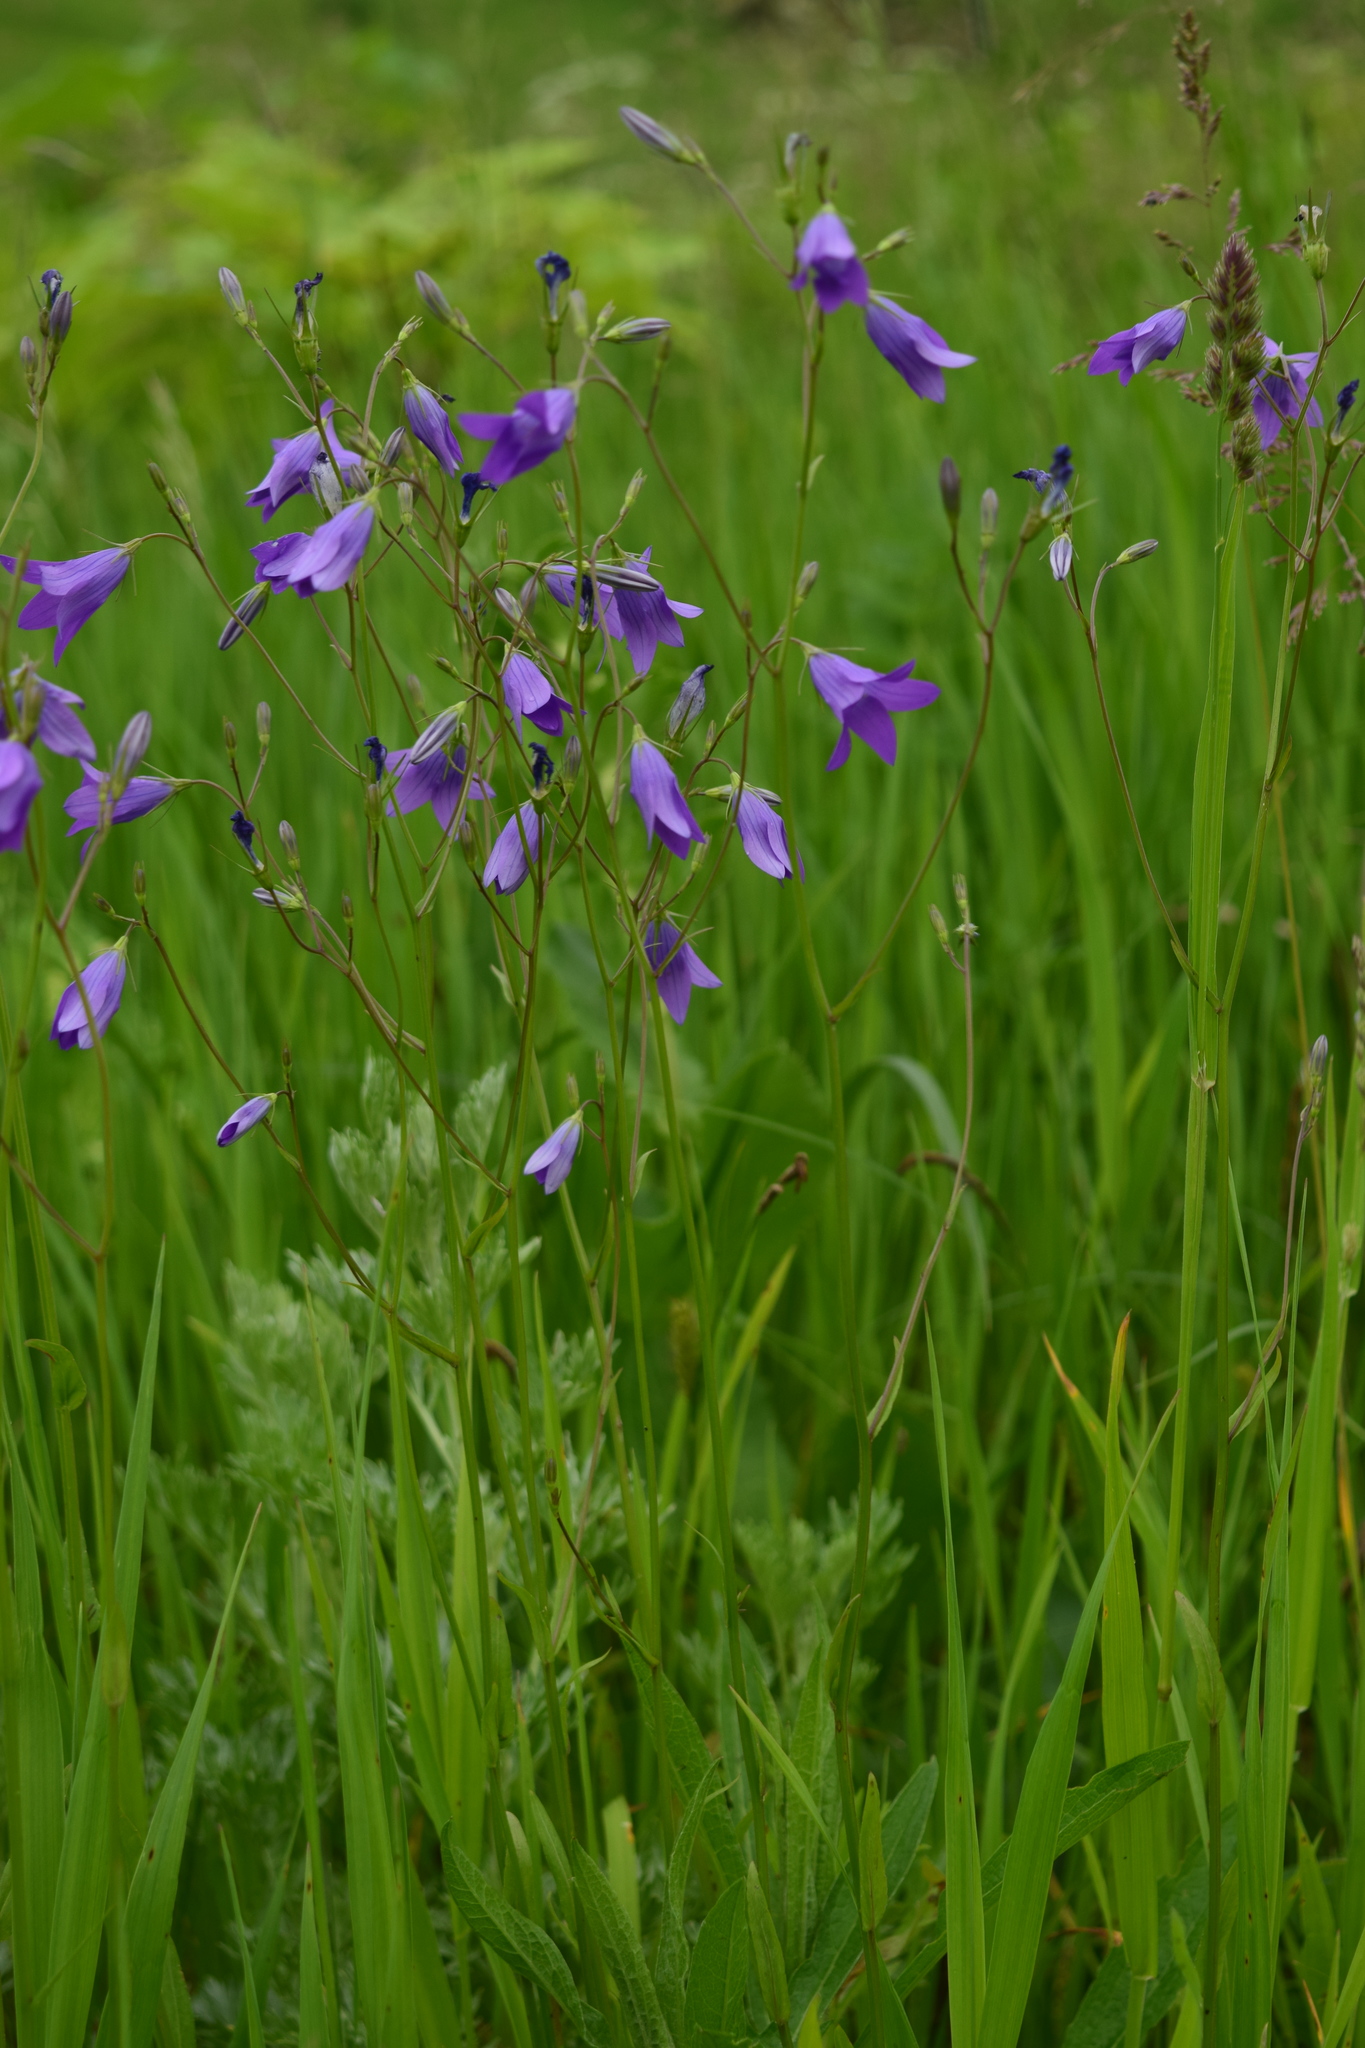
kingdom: Plantae
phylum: Tracheophyta
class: Magnoliopsida
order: Asterales
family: Campanulaceae
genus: Campanula
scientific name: Campanula patula
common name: Spreading bellflower
